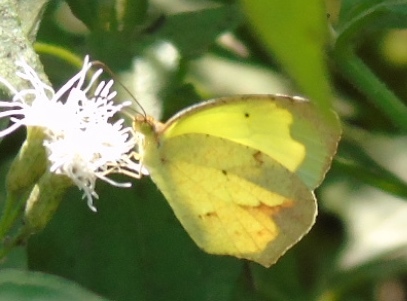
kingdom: Animalia
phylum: Arthropoda
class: Insecta
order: Lepidoptera
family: Pieridae
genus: Abaeis
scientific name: Abaeis mexicana
